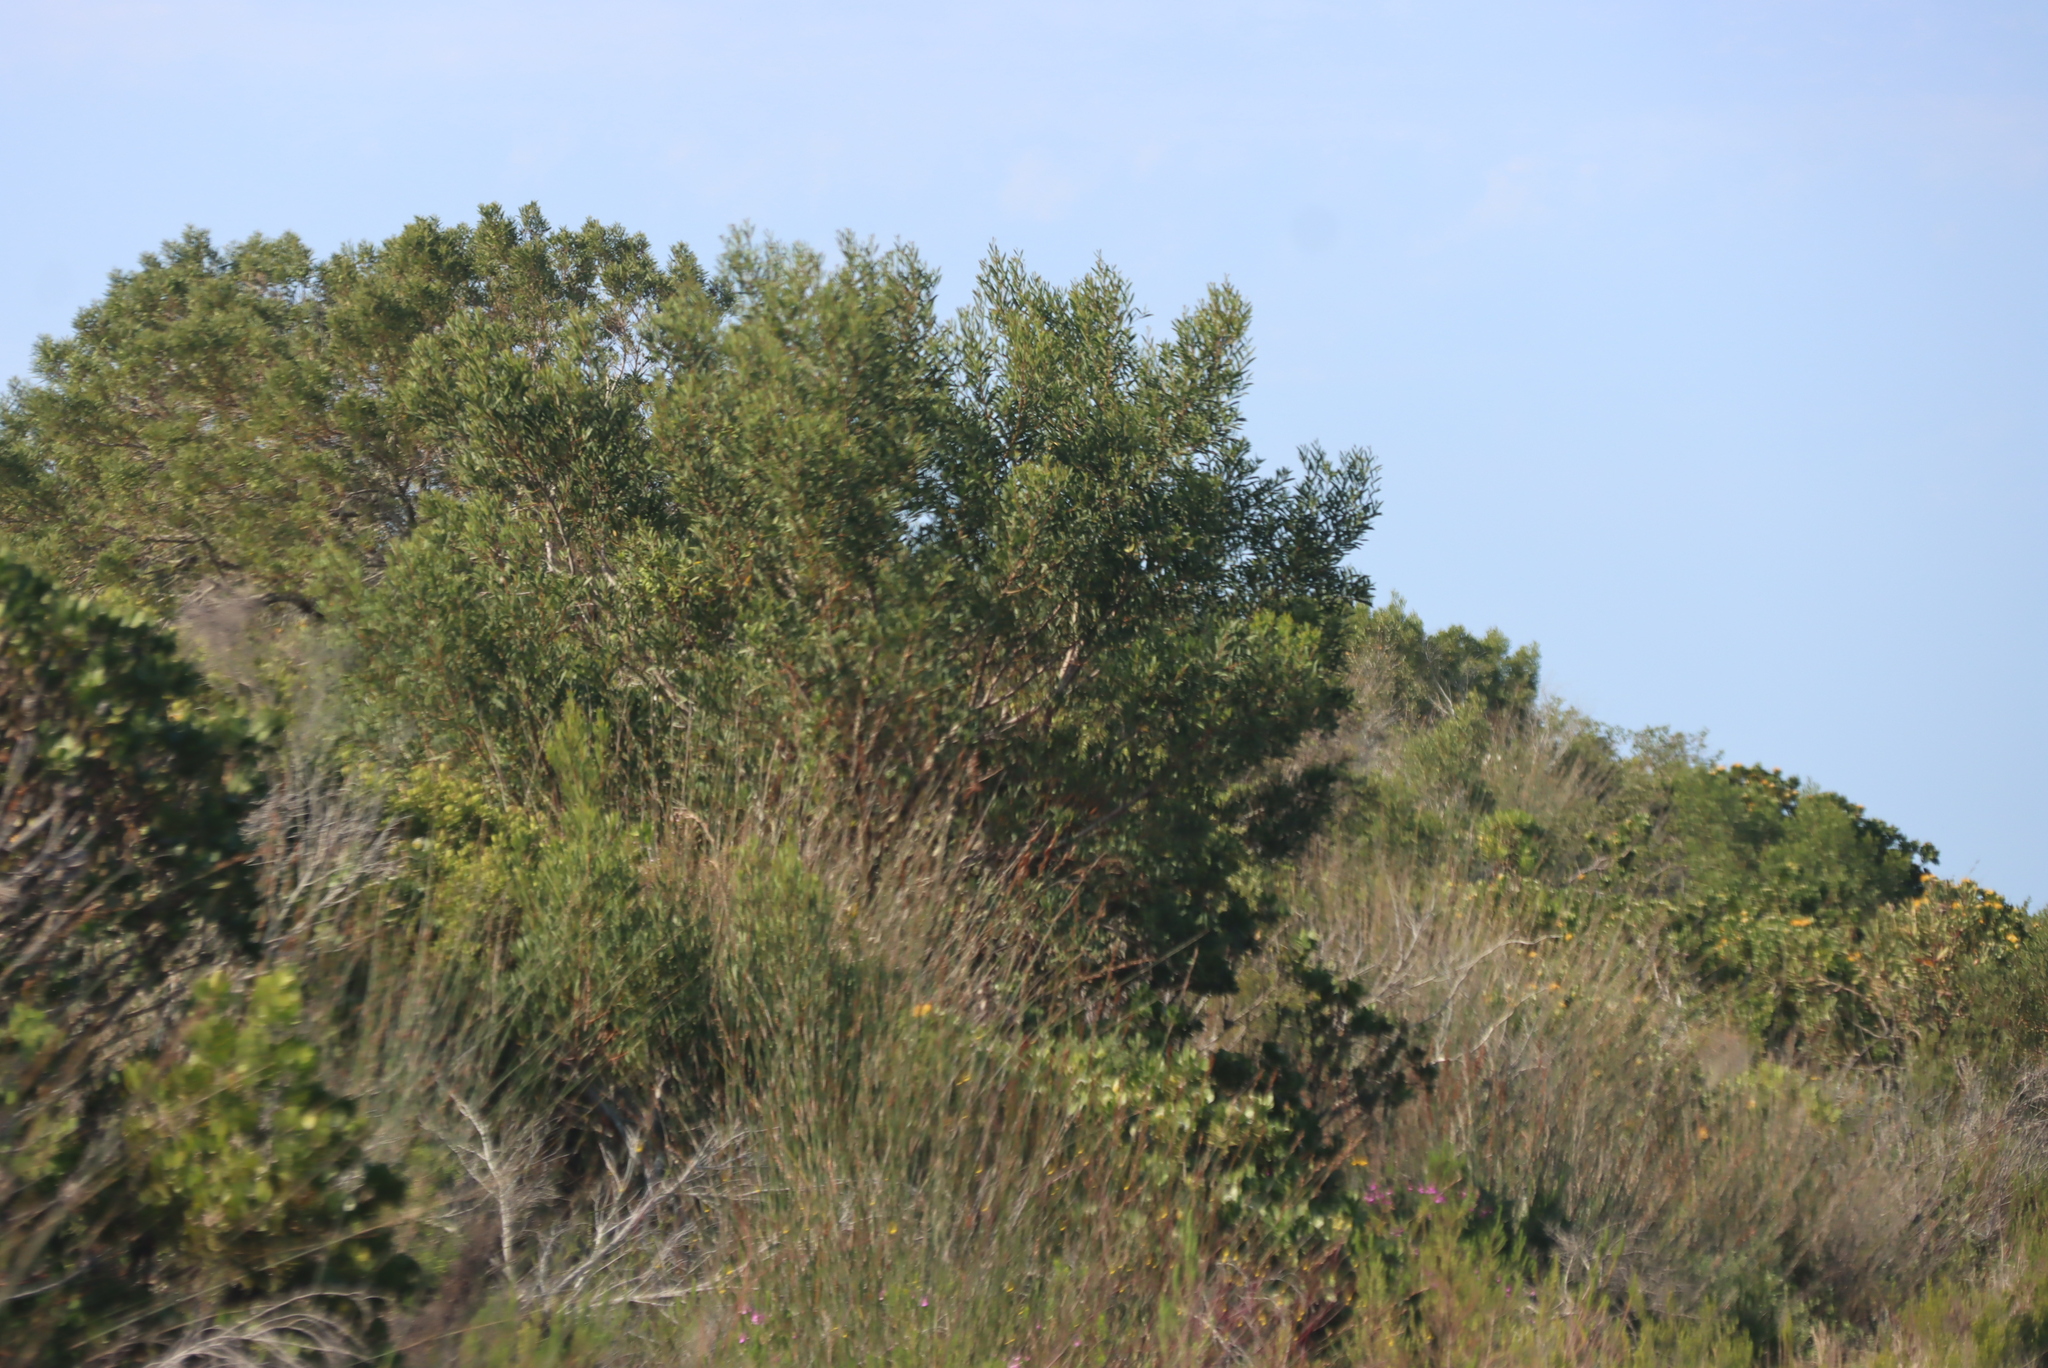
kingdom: Plantae
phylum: Tracheophyta
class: Magnoliopsida
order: Fabales
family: Fabaceae
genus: Acacia
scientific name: Acacia cyclops
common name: Coastal wattle
